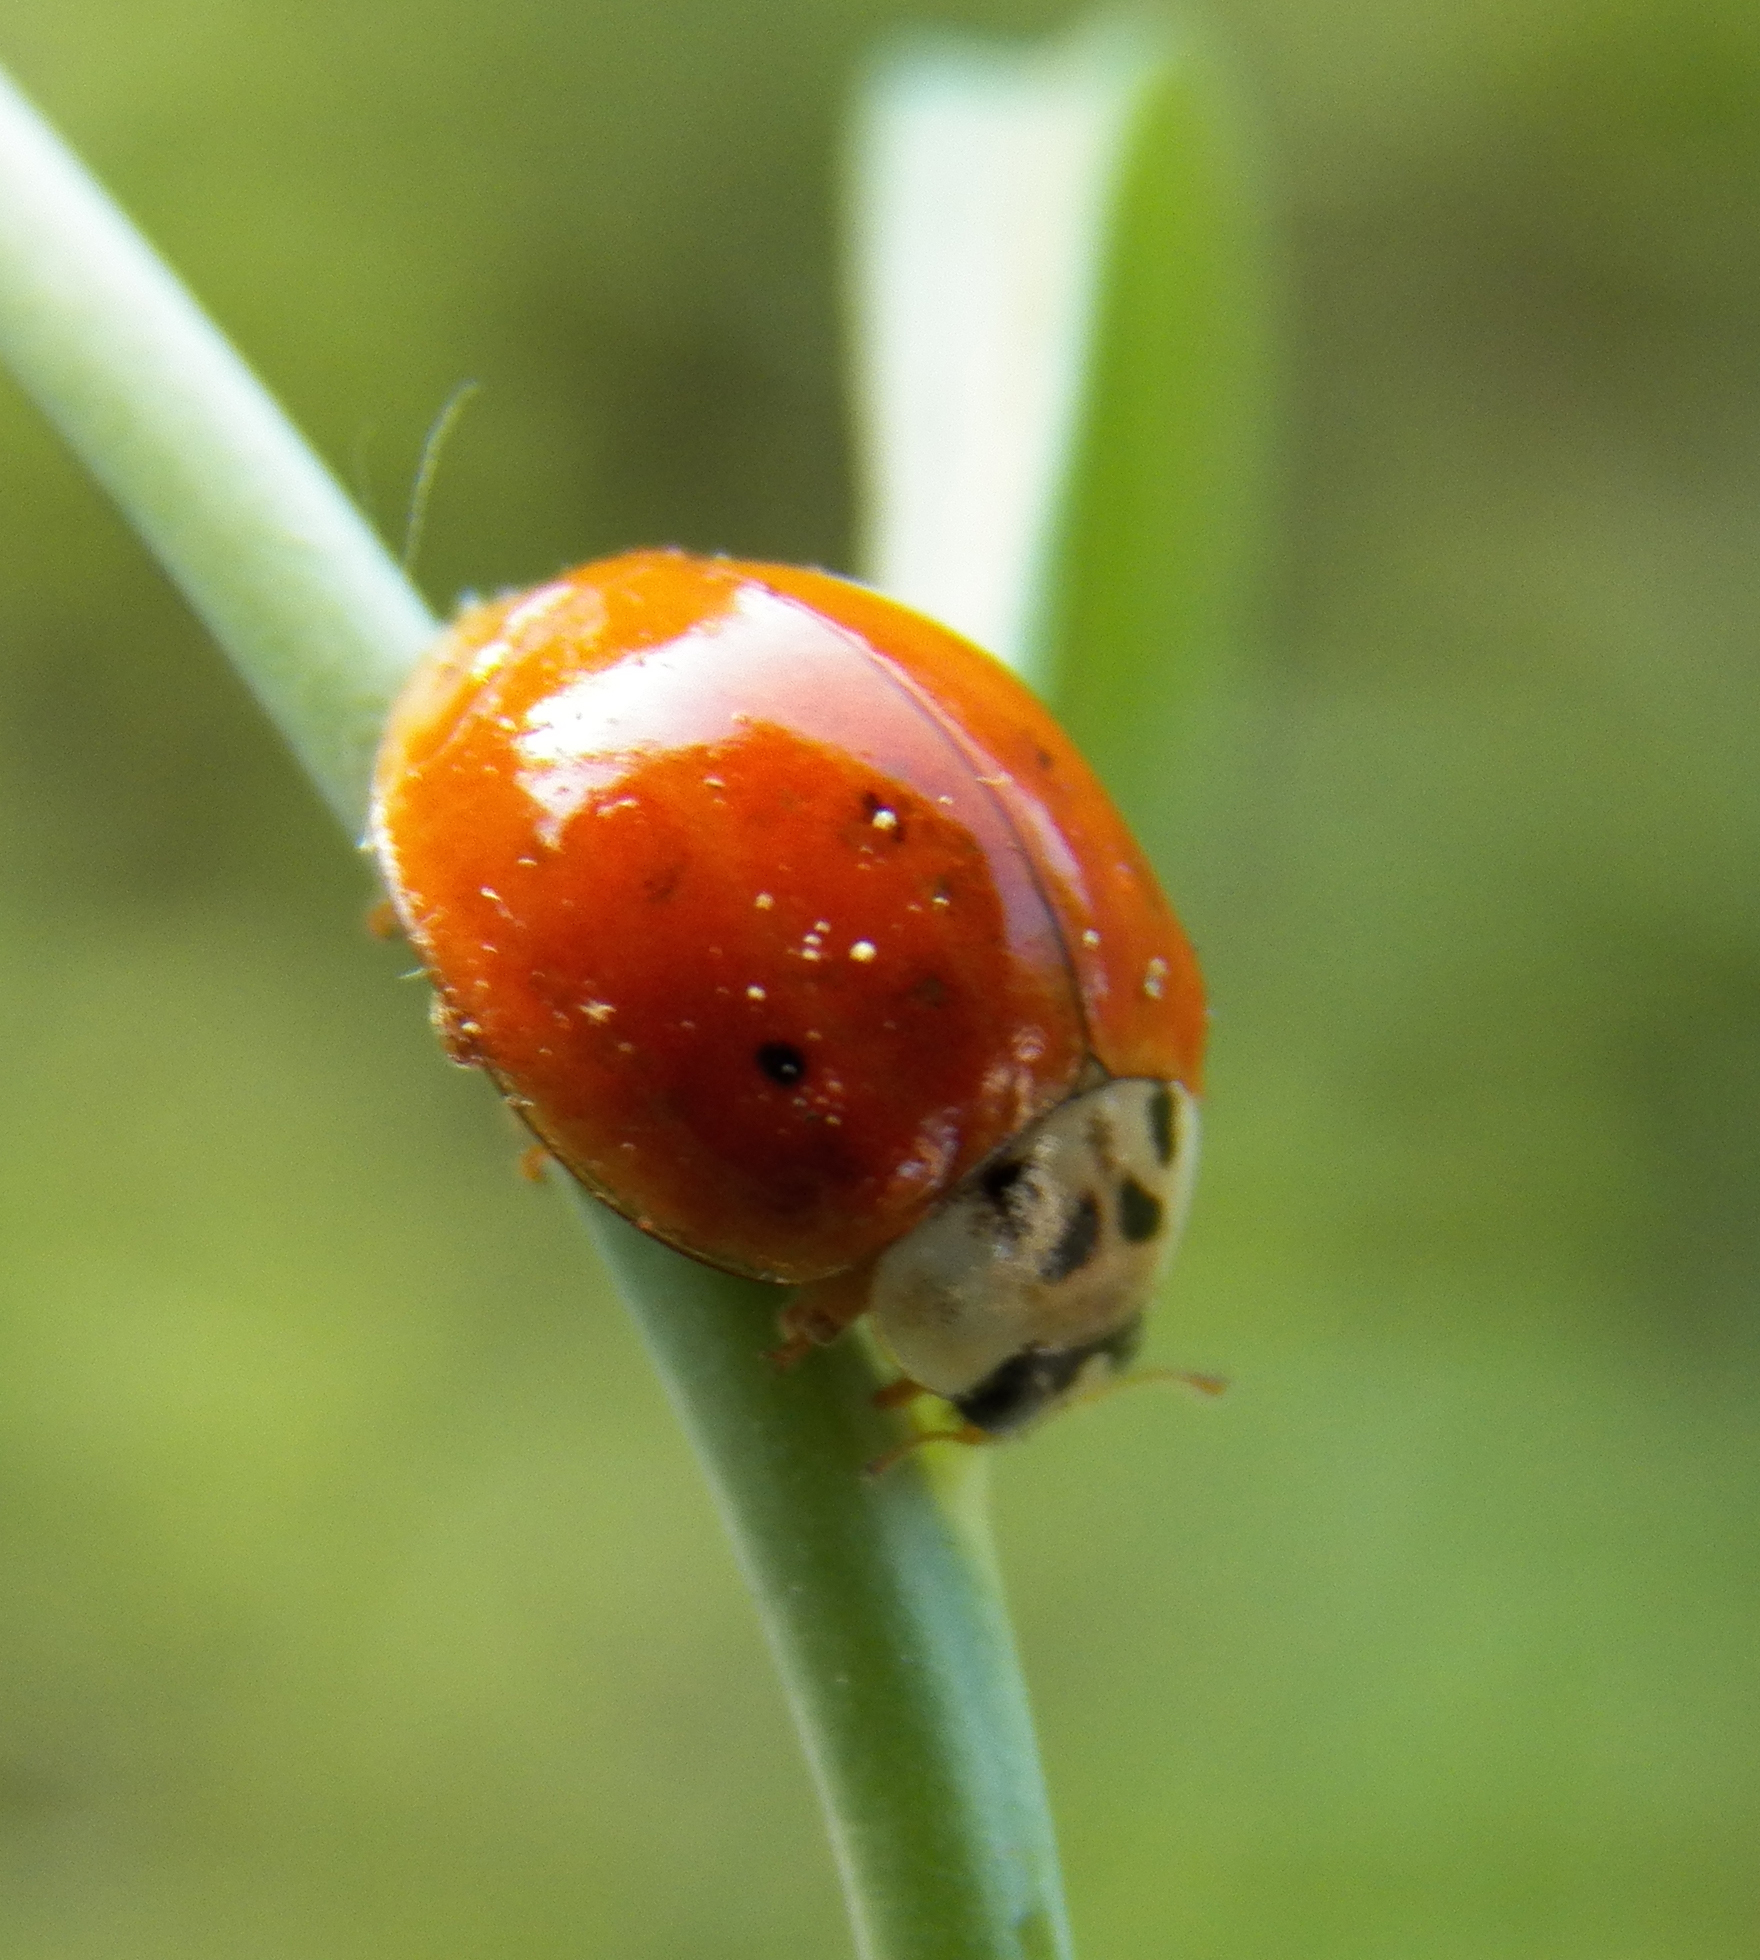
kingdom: Animalia
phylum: Arthropoda
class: Insecta
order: Coleoptera
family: Coccinellidae
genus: Harmonia
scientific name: Harmonia axyridis
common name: Harlequin ladybird
